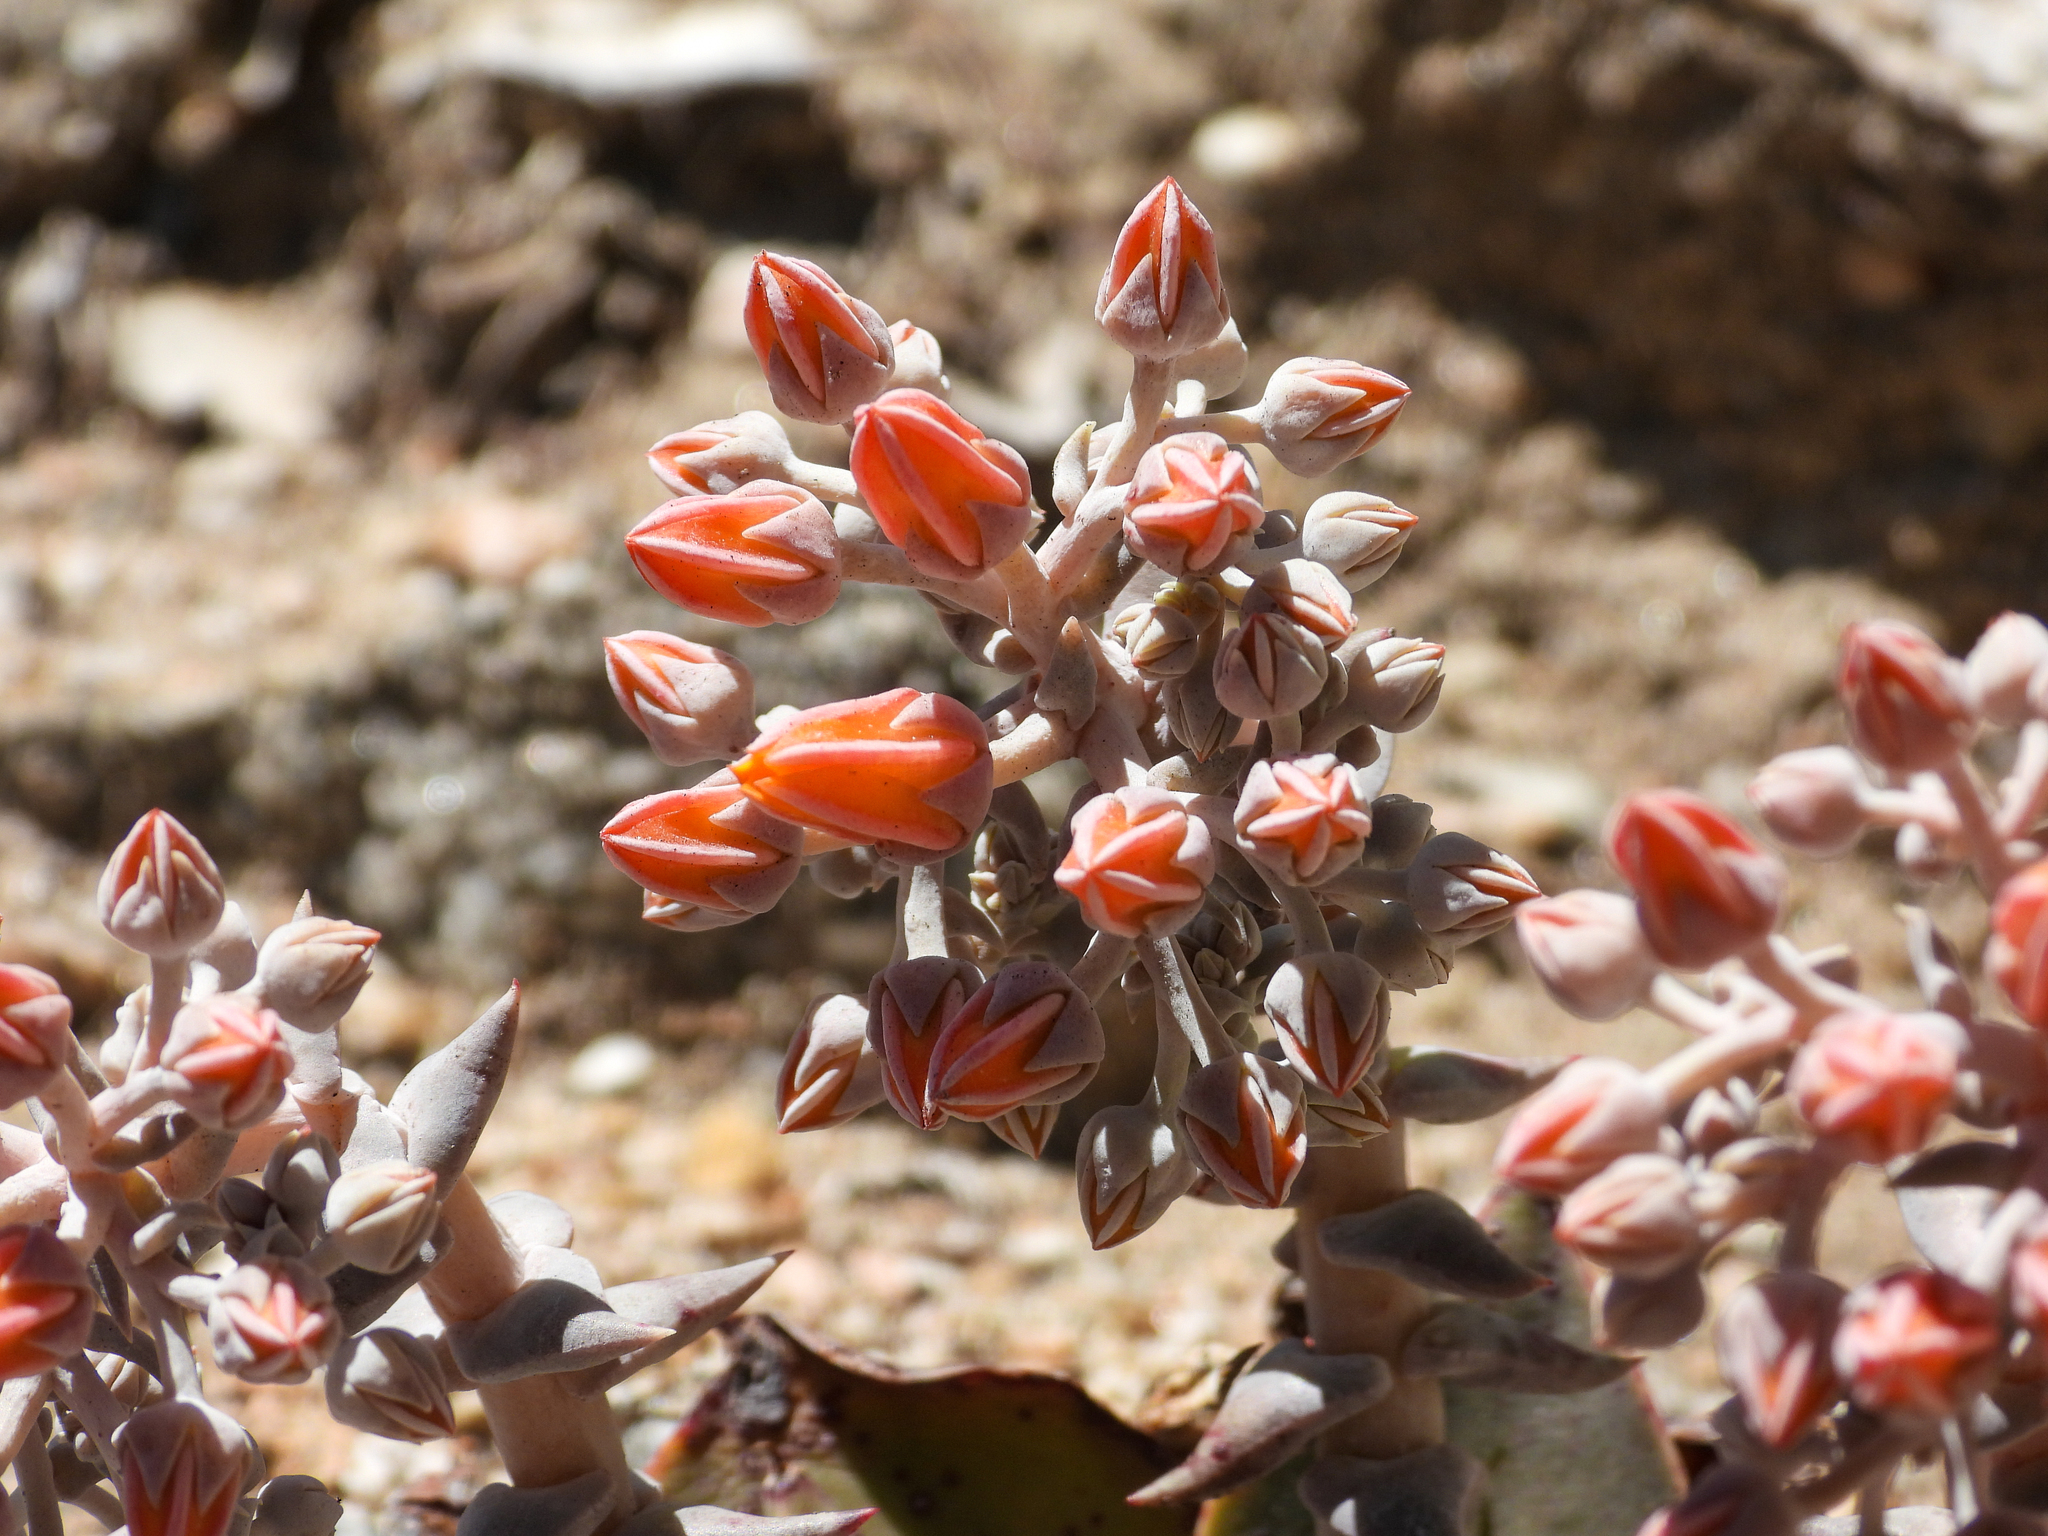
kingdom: Plantae
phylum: Tracheophyta
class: Magnoliopsida
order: Saxifragales
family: Crassulaceae
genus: Dudleya
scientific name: Dudleya cymosa
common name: Canyon dudleya
